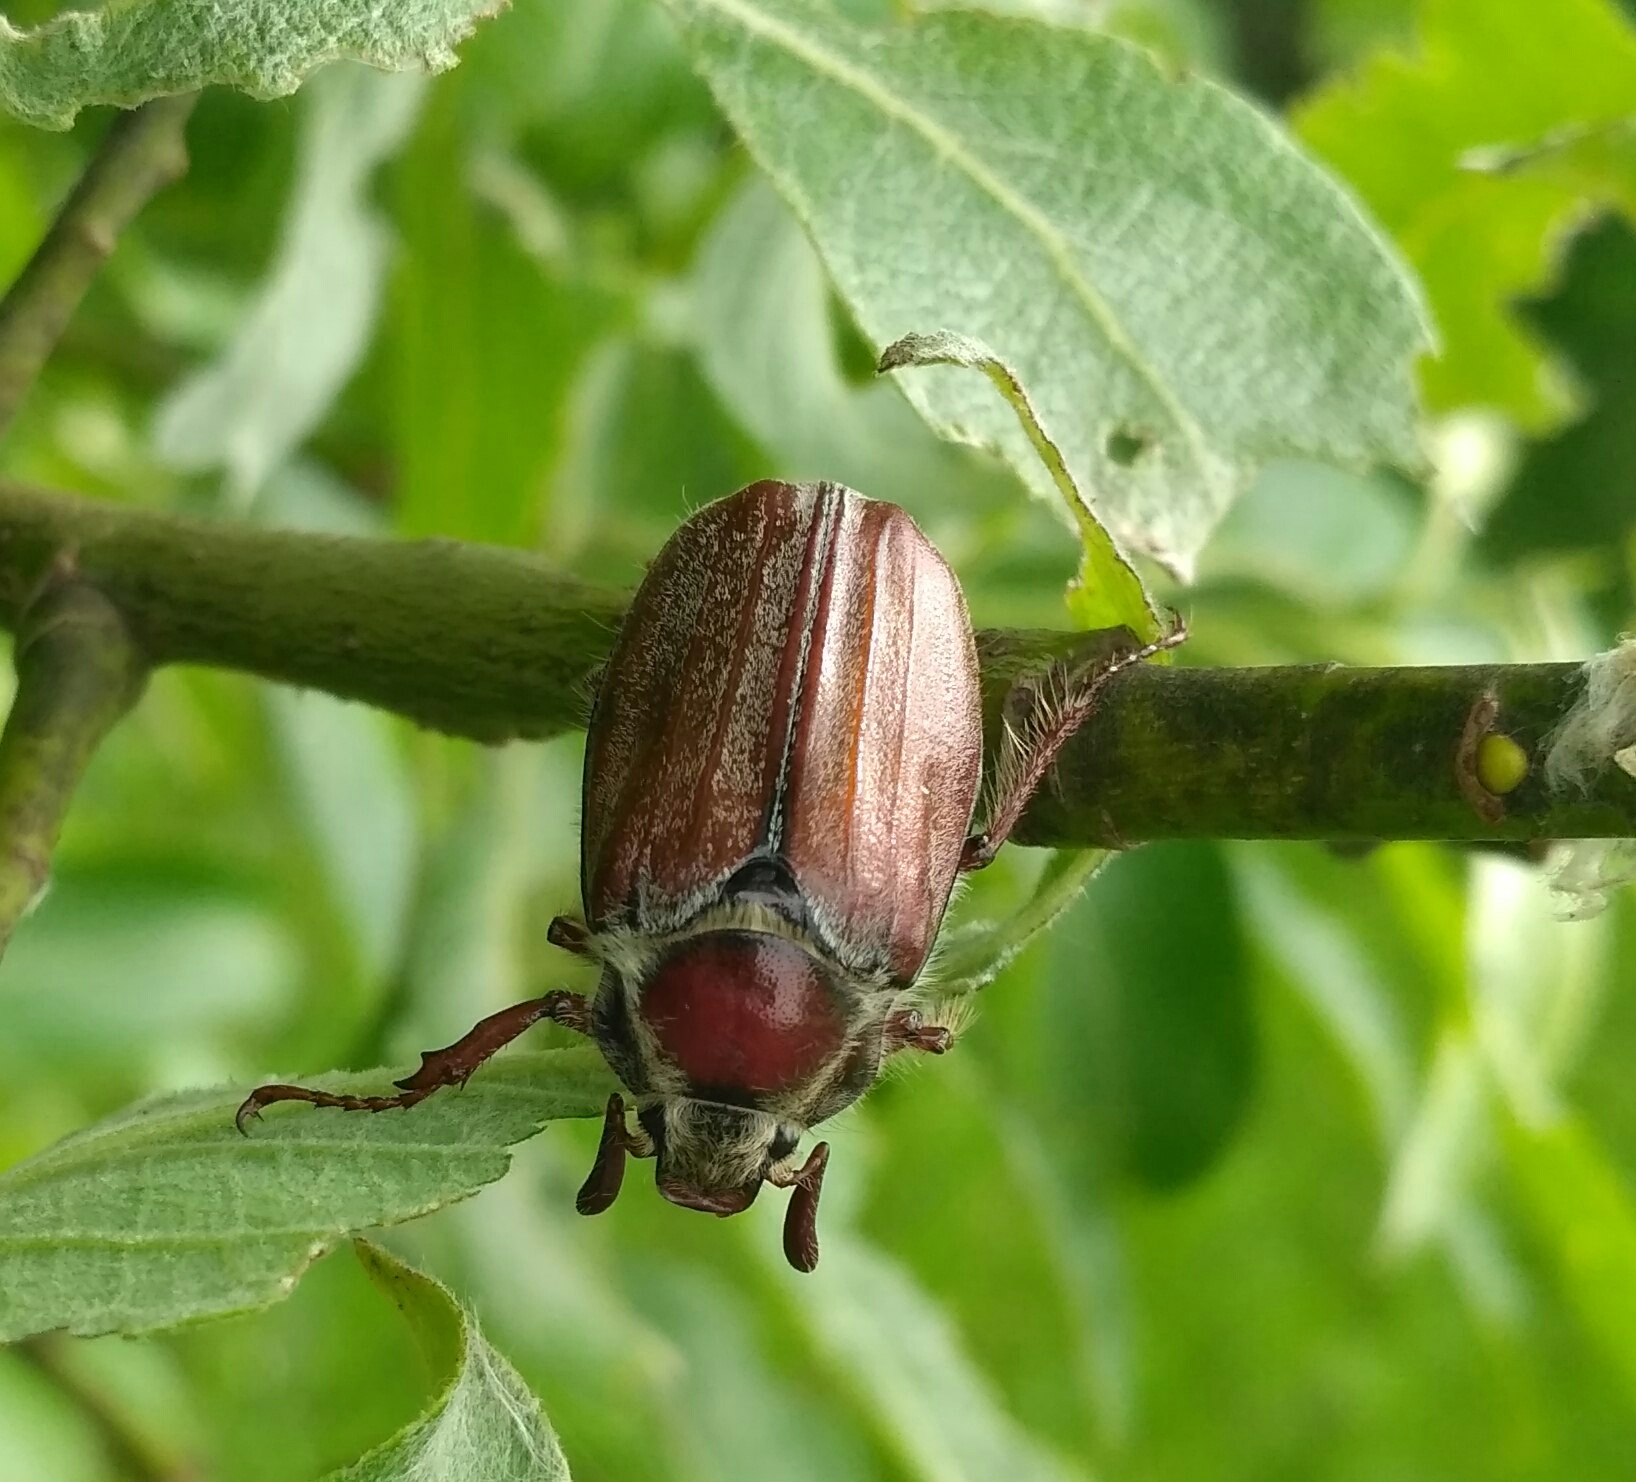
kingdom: Animalia
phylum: Arthropoda
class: Insecta
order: Coleoptera
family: Scarabaeidae
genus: Melolontha
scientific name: Melolontha hippocastani
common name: Chestnut cockchafer
